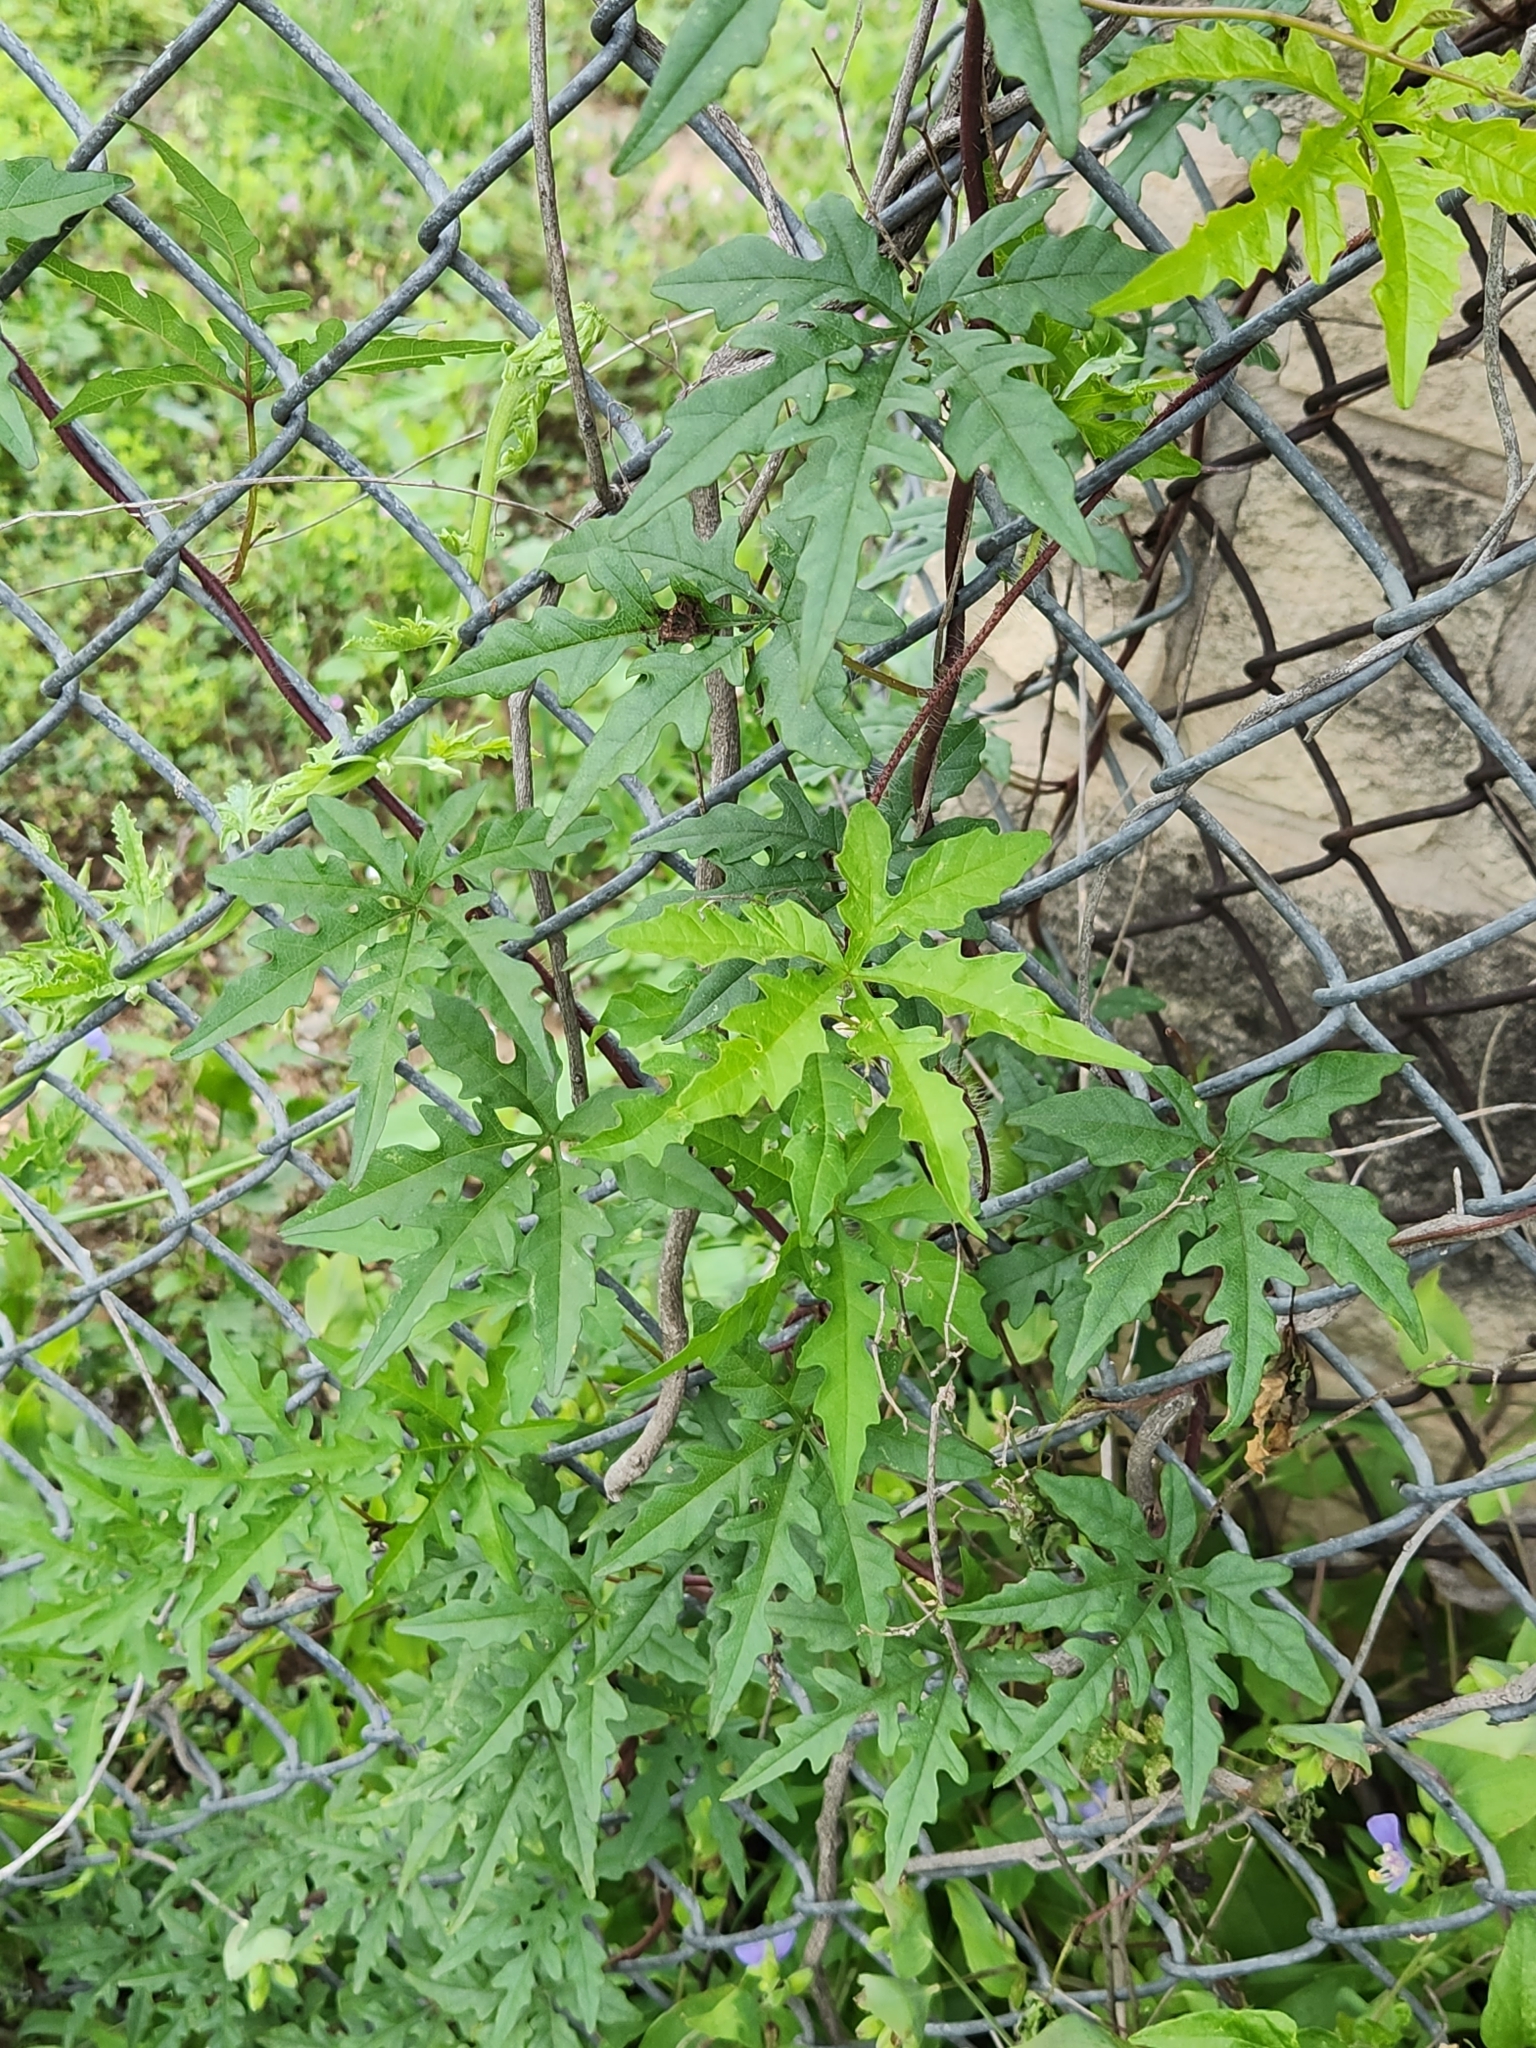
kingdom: Plantae
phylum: Tracheophyta
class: Magnoliopsida
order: Solanales
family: Convolvulaceae
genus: Distimake
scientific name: Distimake dissectus
